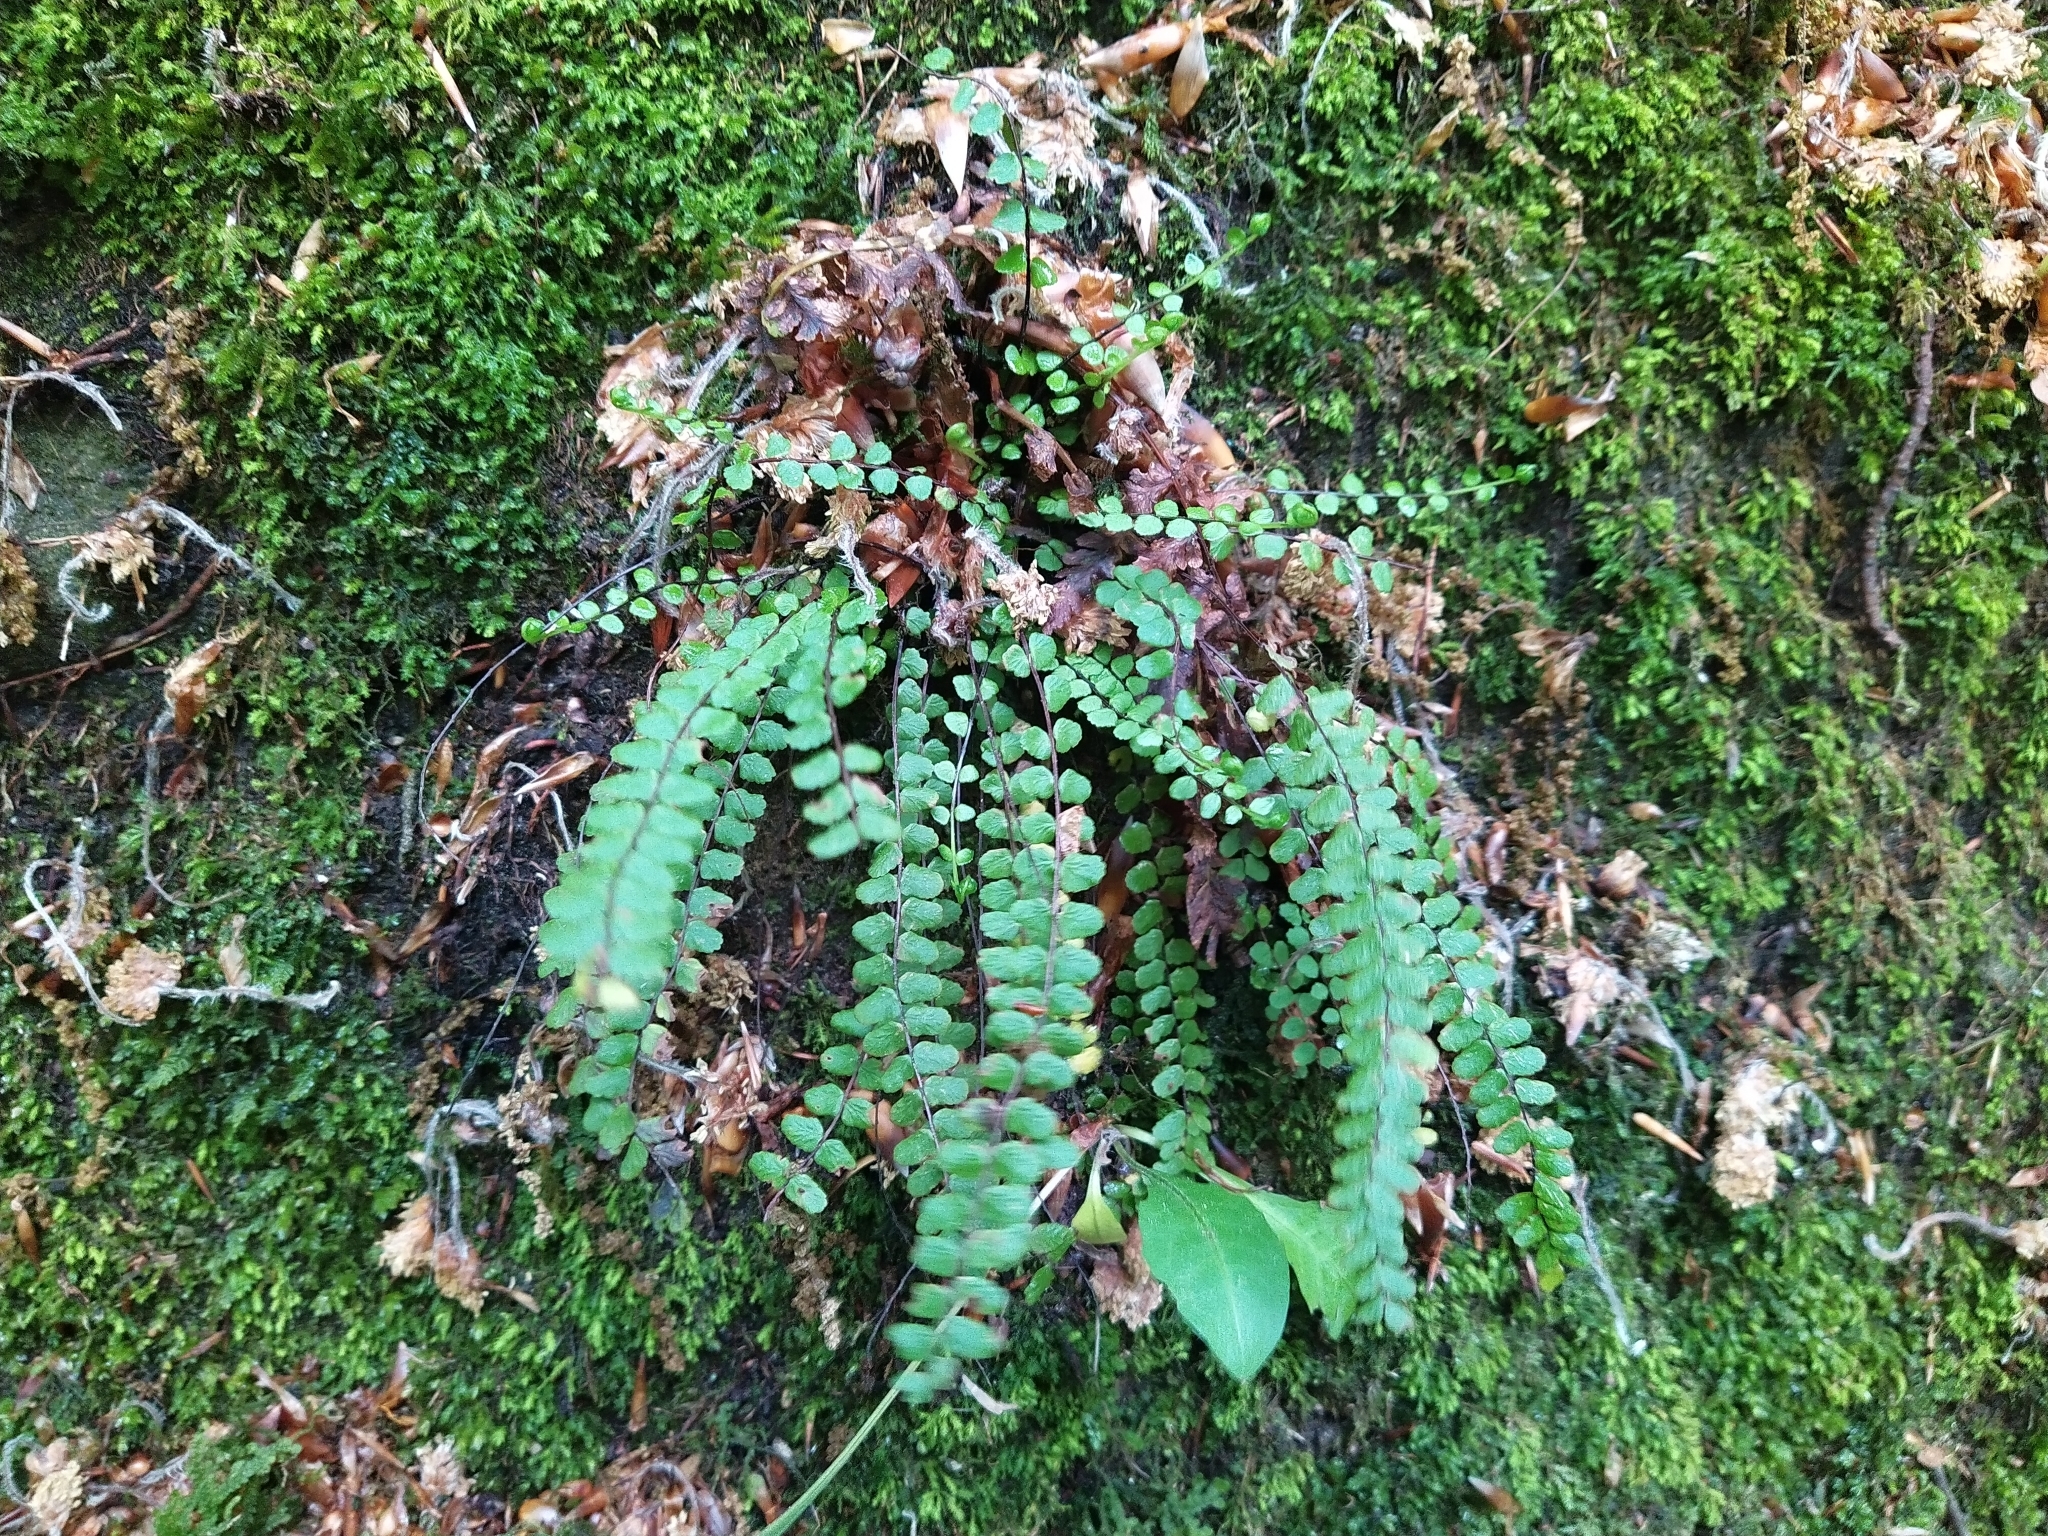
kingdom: Plantae
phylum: Tracheophyta
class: Polypodiopsida
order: Polypodiales
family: Aspleniaceae
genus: Asplenium
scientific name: Asplenium trichomanes
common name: Maidenhair spleenwort
